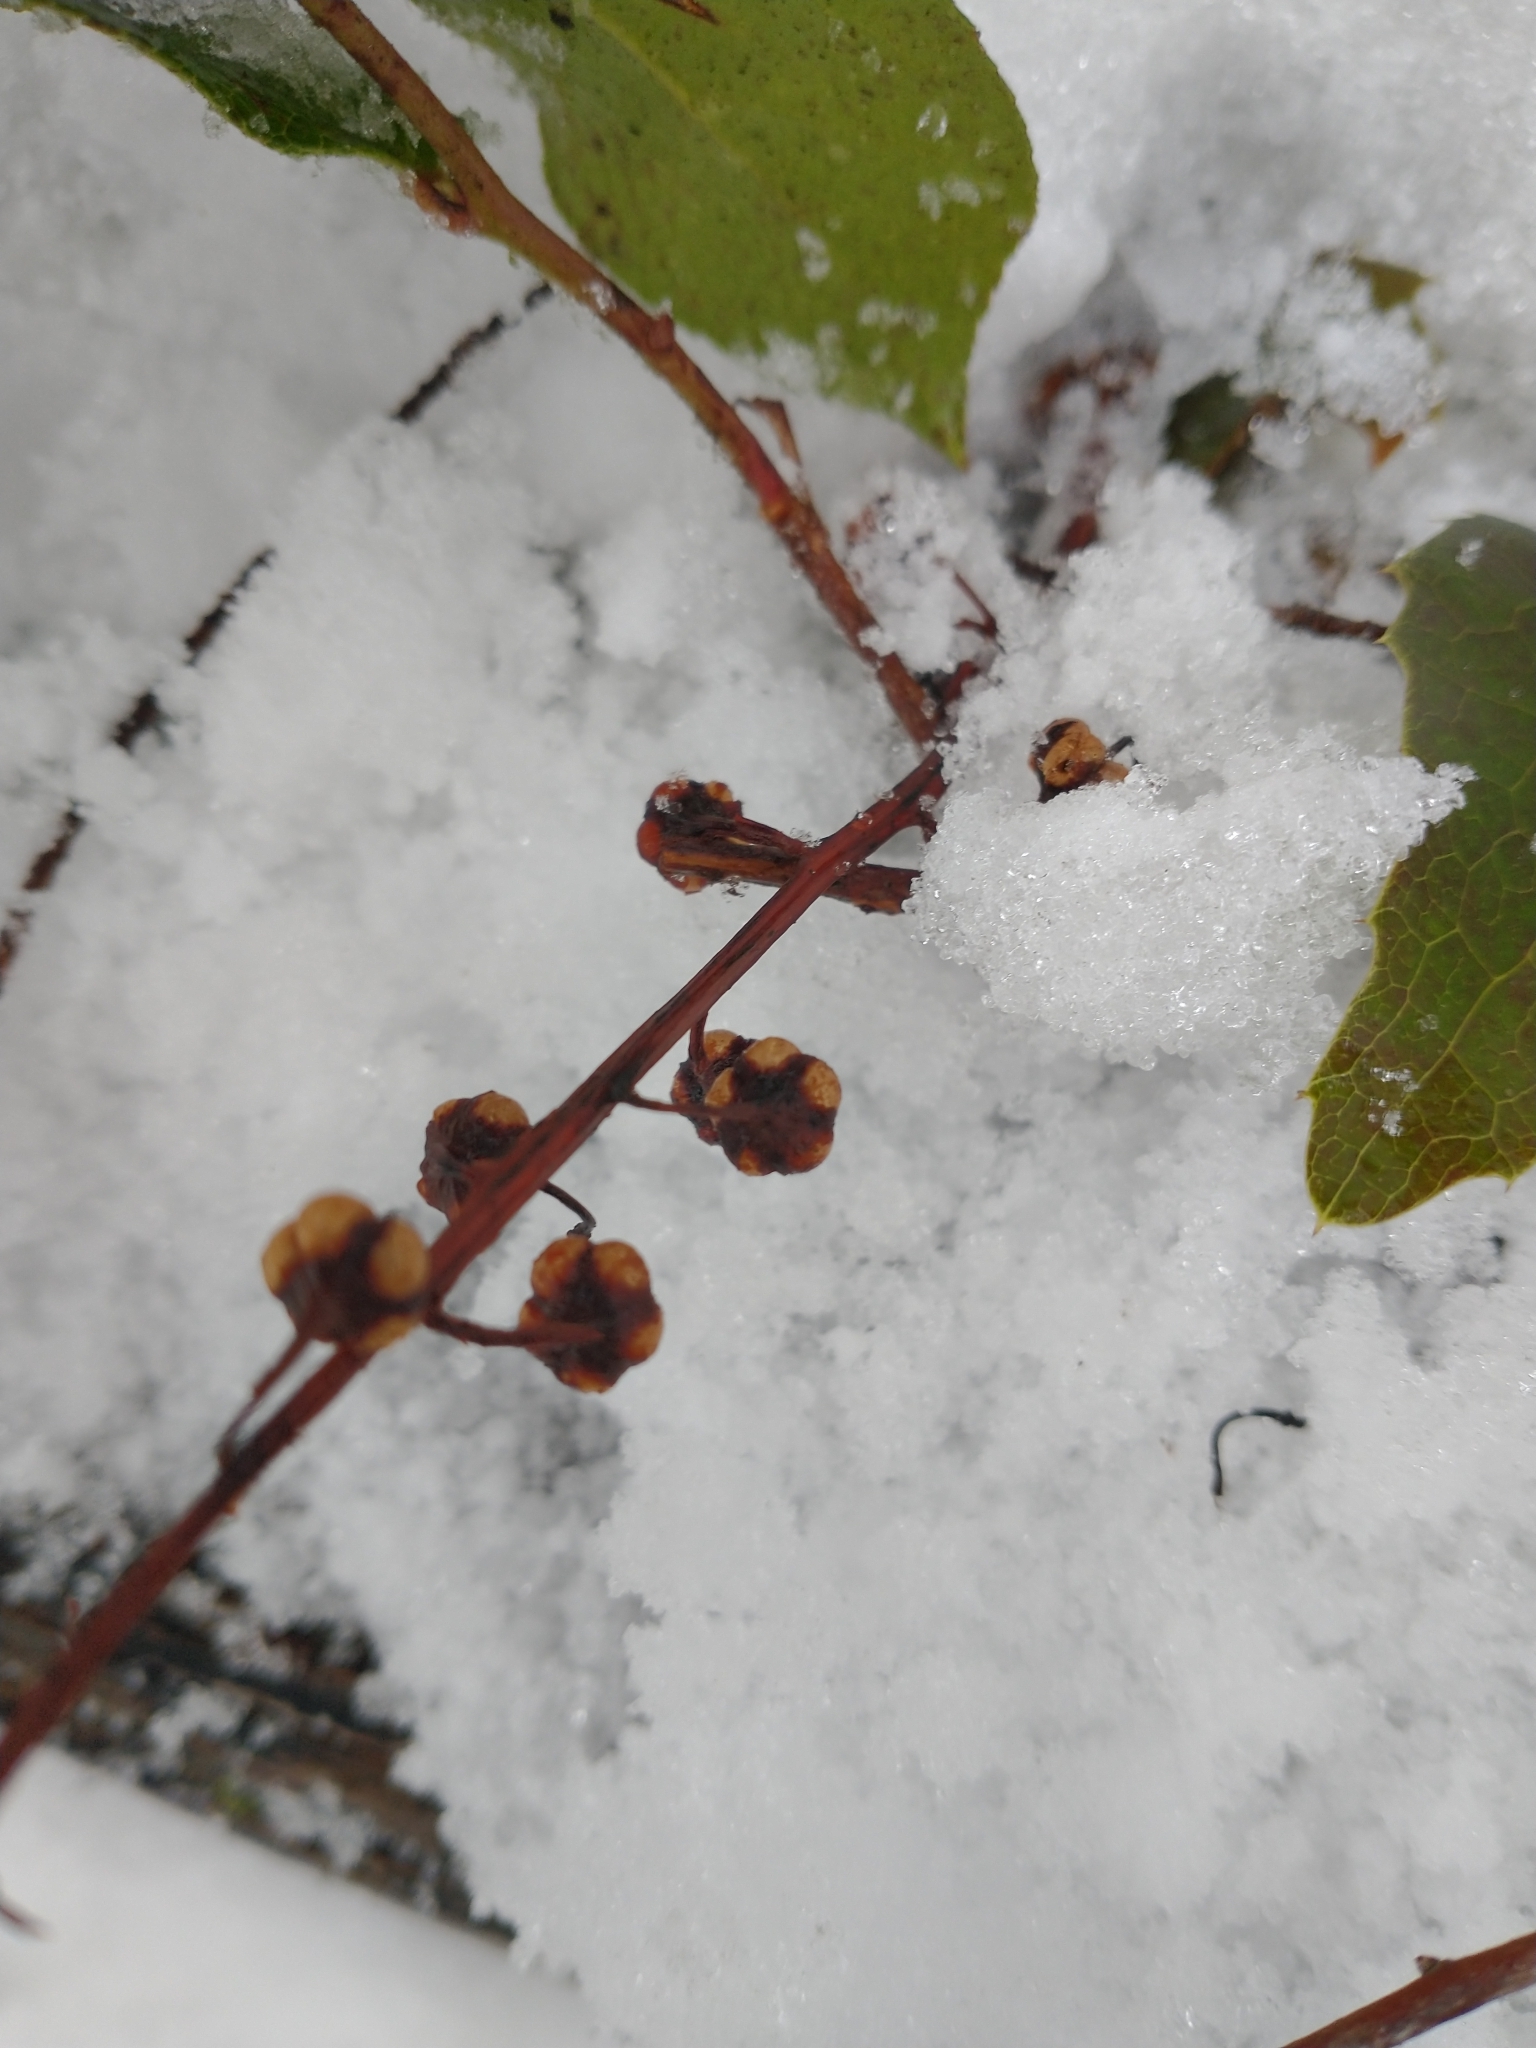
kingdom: Plantae
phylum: Tracheophyta
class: Magnoliopsida
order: Ericales
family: Ericaceae
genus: Pyrola
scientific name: Pyrola asarifolia
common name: Bog wintergreen
